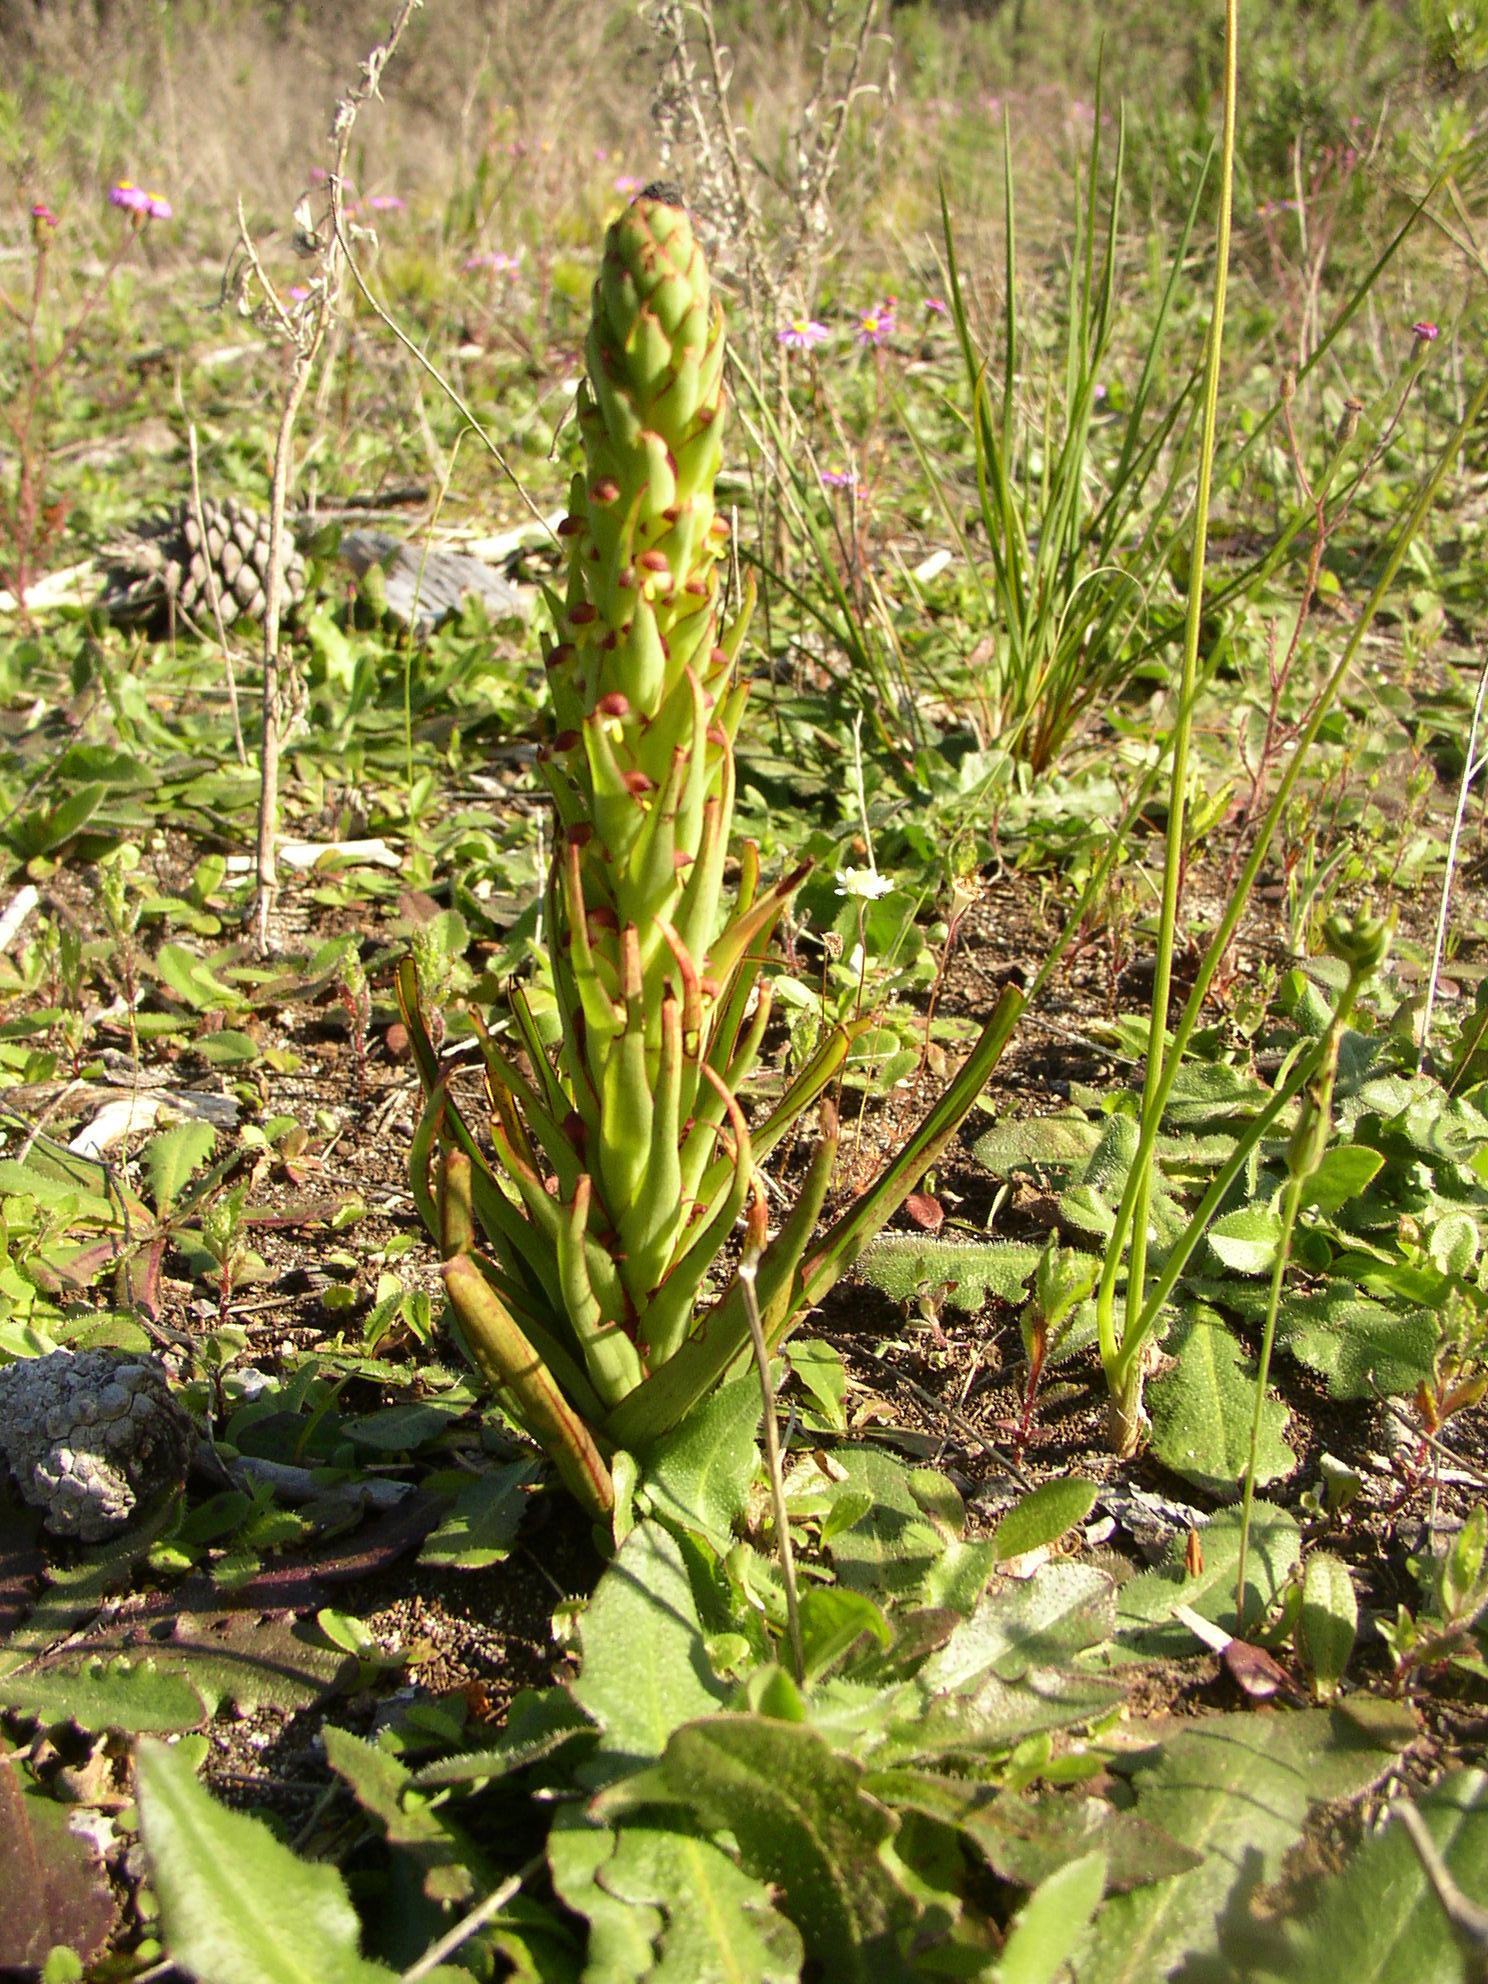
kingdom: Plantae
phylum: Tracheophyta
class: Liliopsida
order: Asparagales
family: Orchidaceae
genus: Disa
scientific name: Disa bracteata
